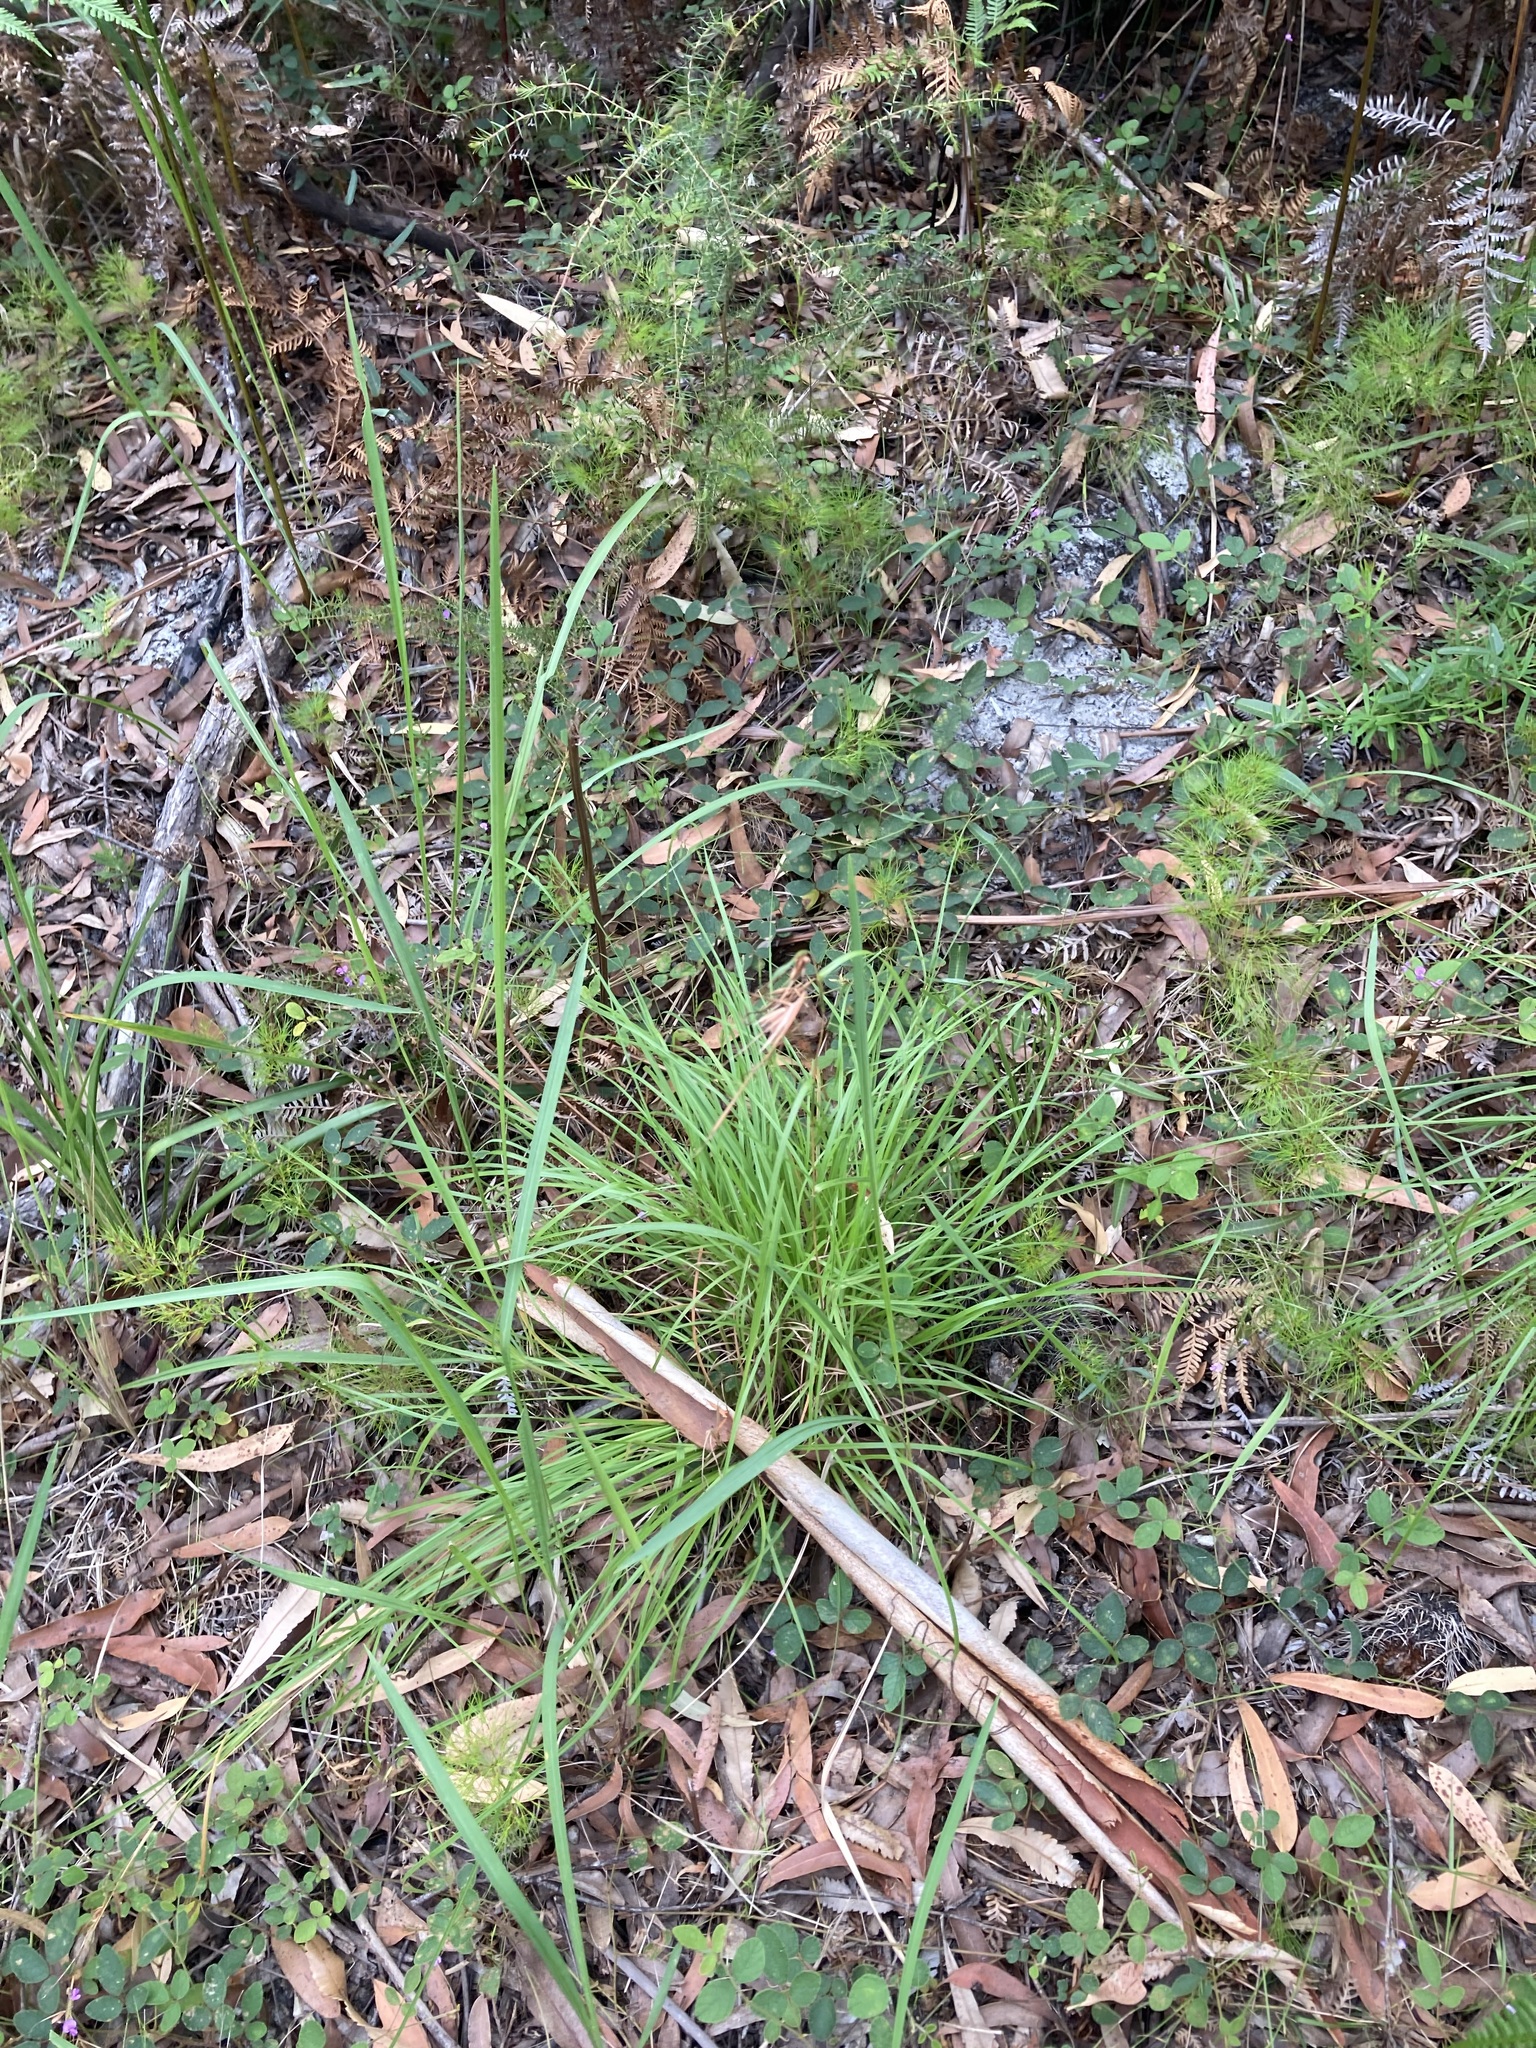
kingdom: Plantae
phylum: Tracheophyta
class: Liliopsida
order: Poales
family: Poaceae
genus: Themeda
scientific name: Themeda triandra
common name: Kangaroo grass
